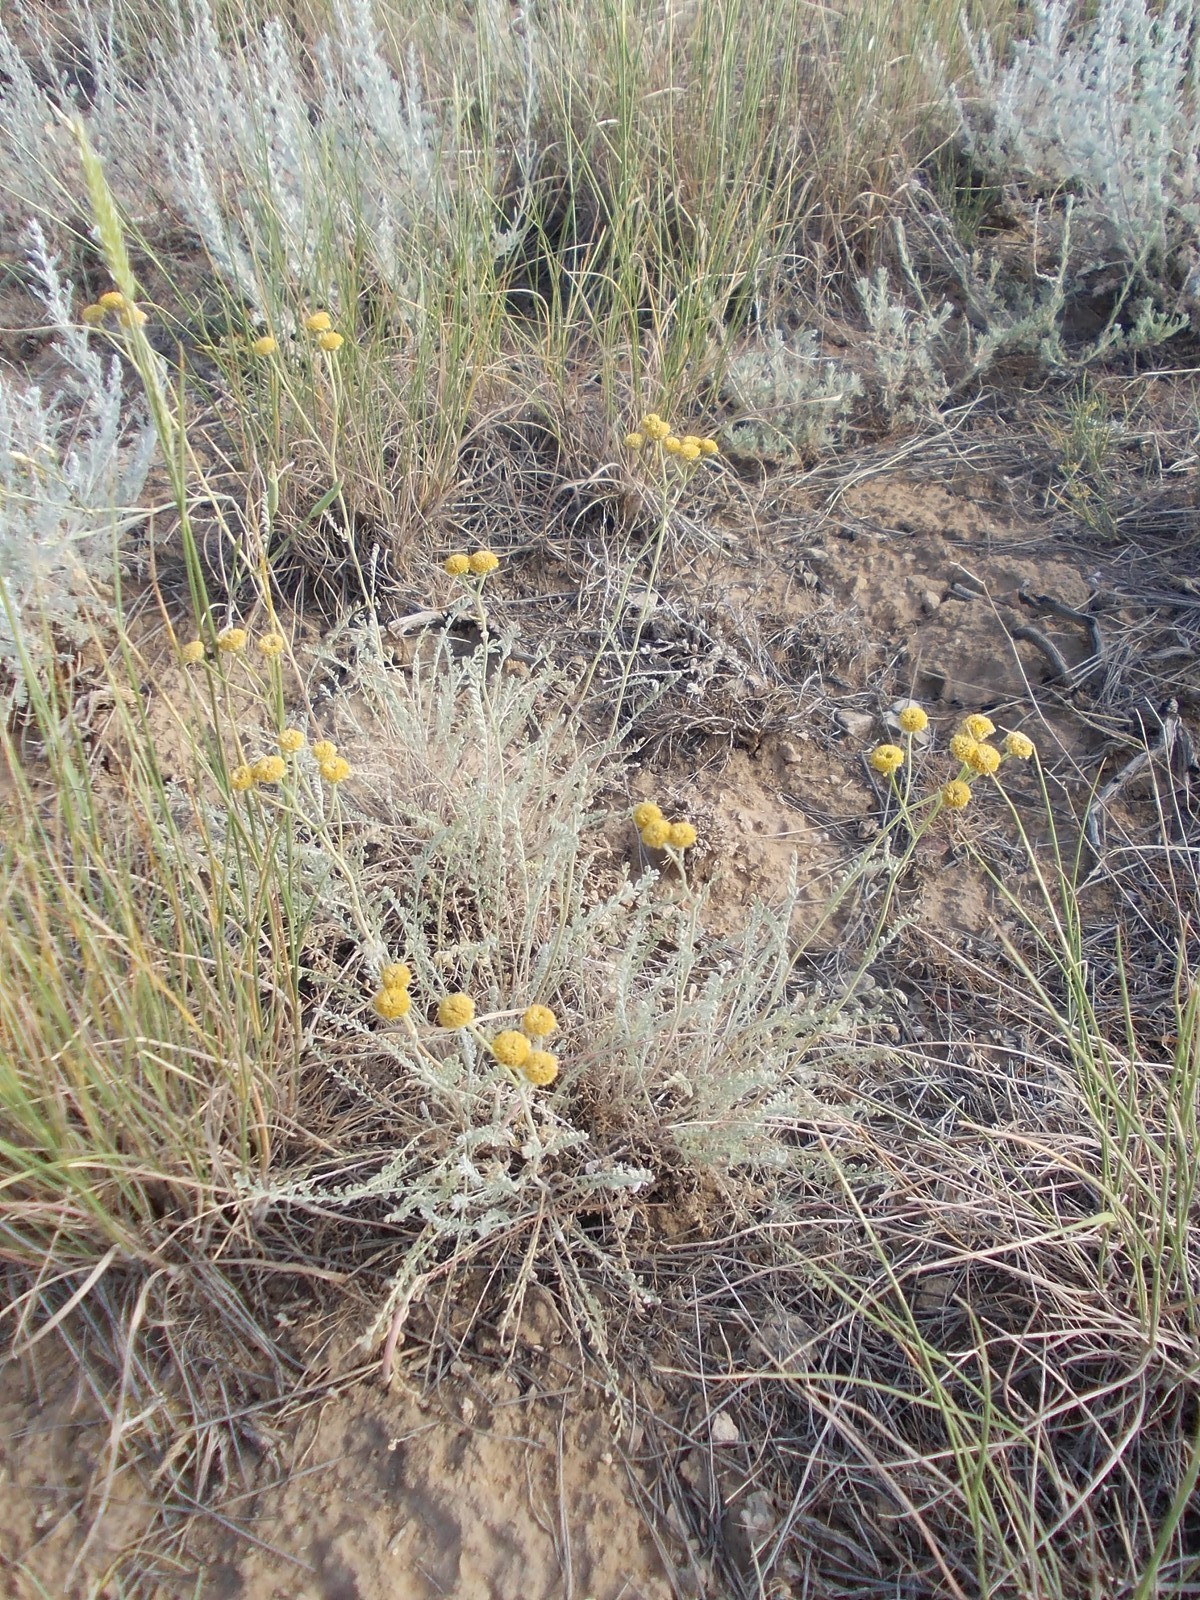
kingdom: Plantae
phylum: Tracheophyta
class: Magnoliopsida
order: Asterales
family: Asteraceae
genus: Tanacetum
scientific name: Tanacetum achilleifolium
